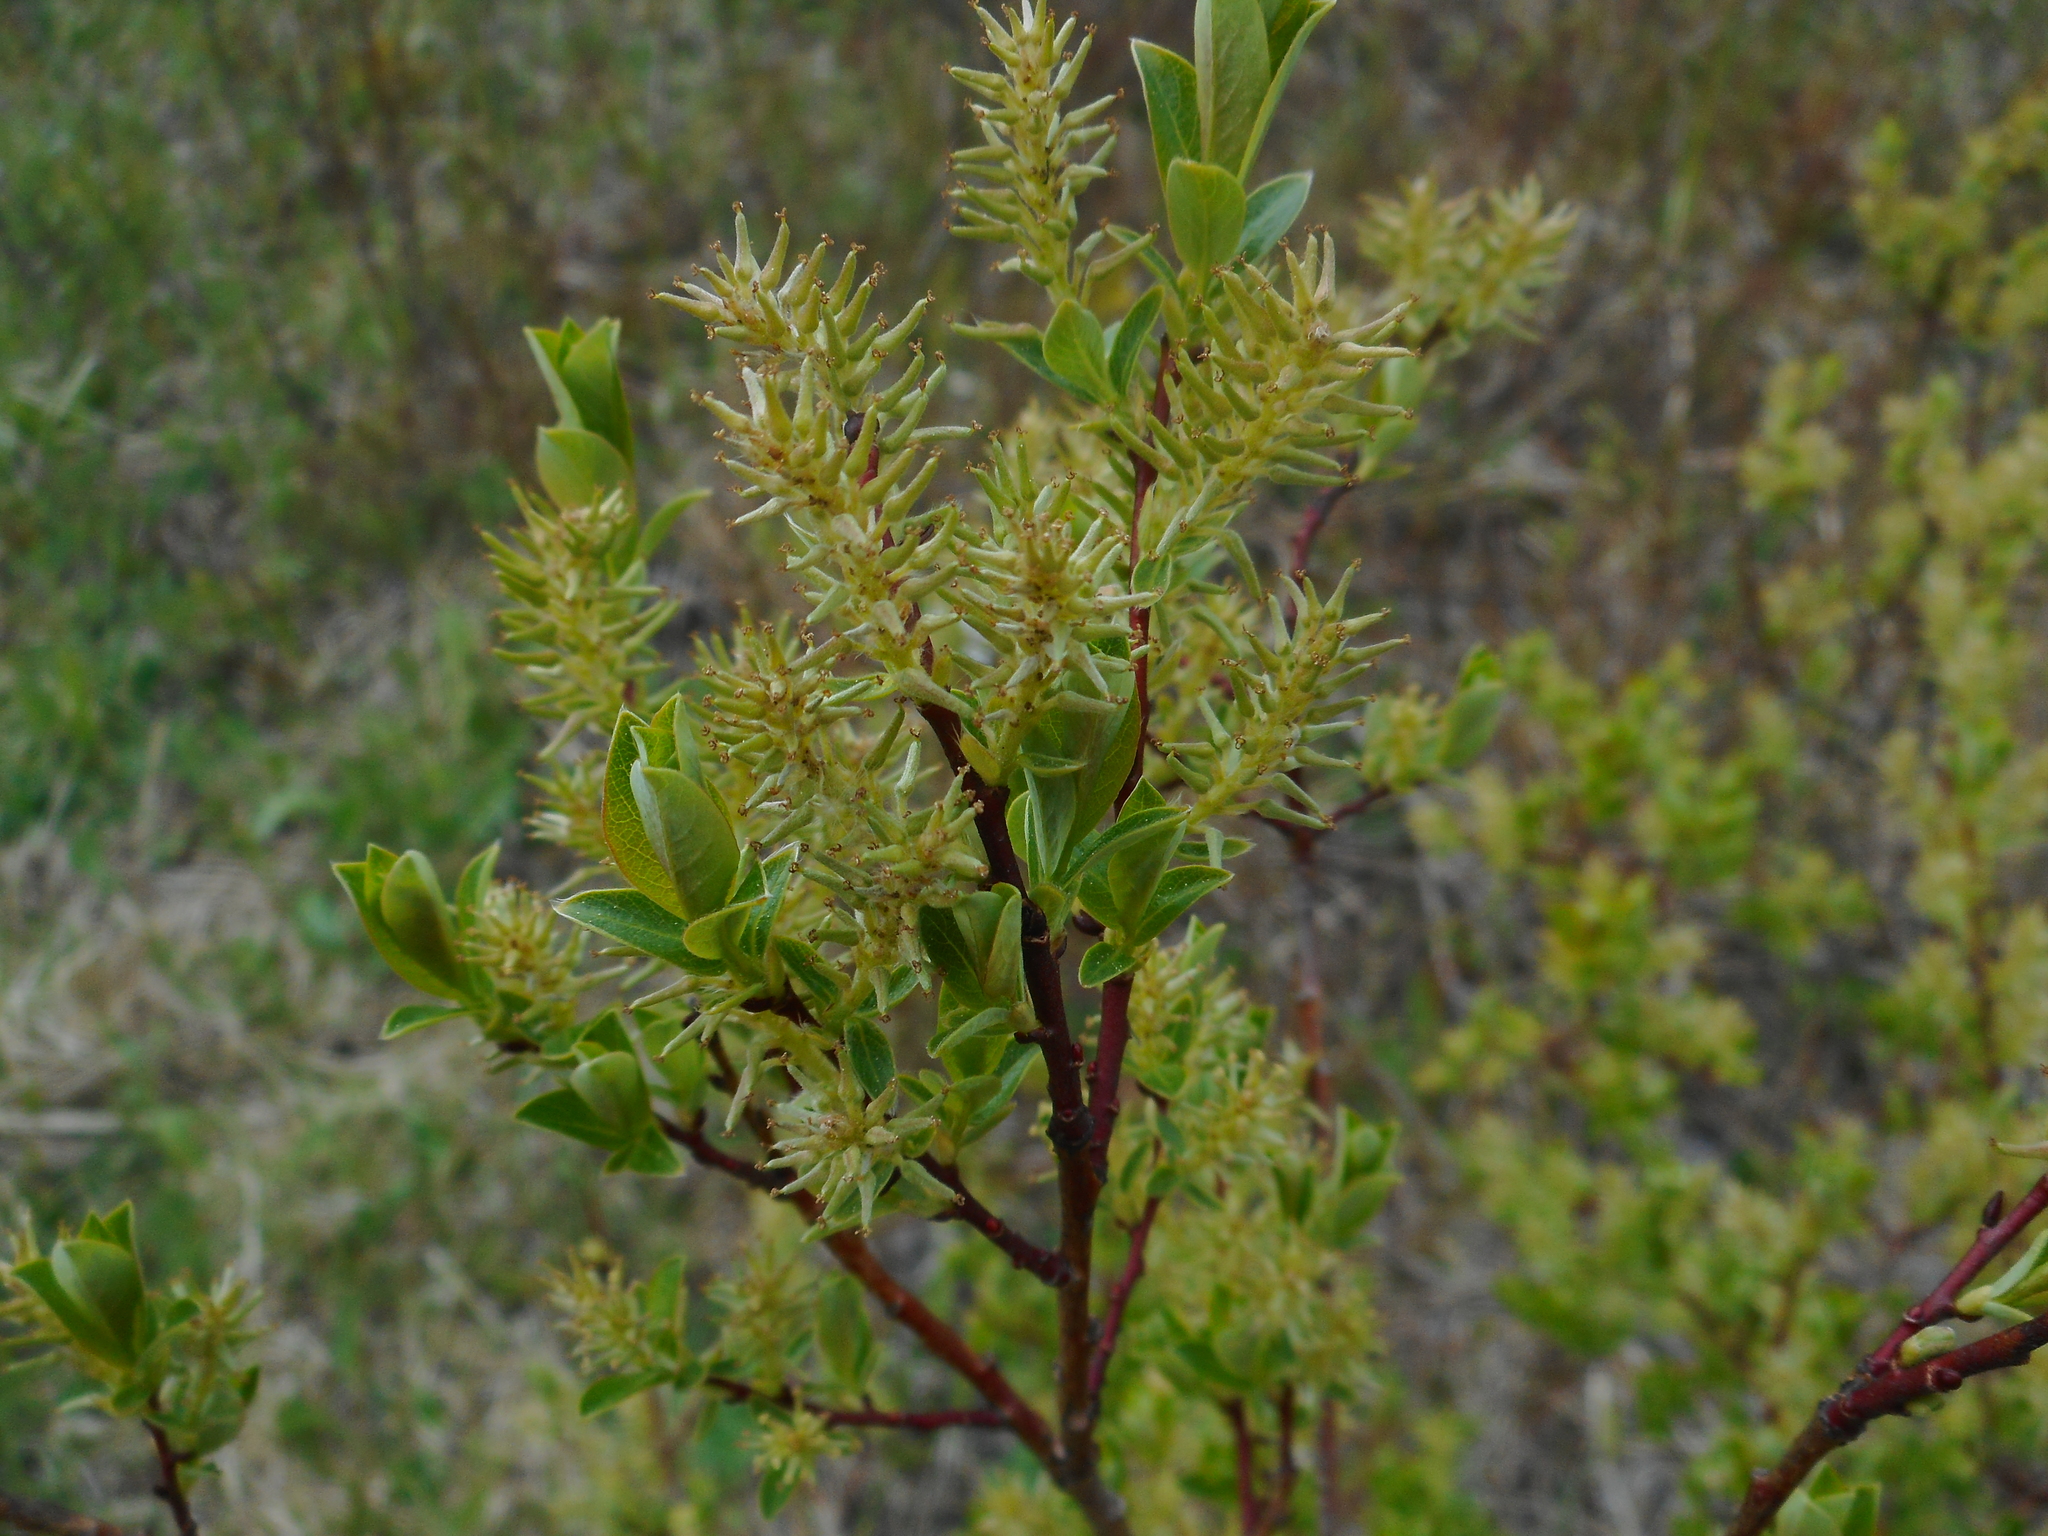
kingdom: Plantae
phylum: Tracheophyta
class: Magnoliopsida
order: Malpighiales
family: Salicaceae
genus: Salix
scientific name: Salix starkeana
